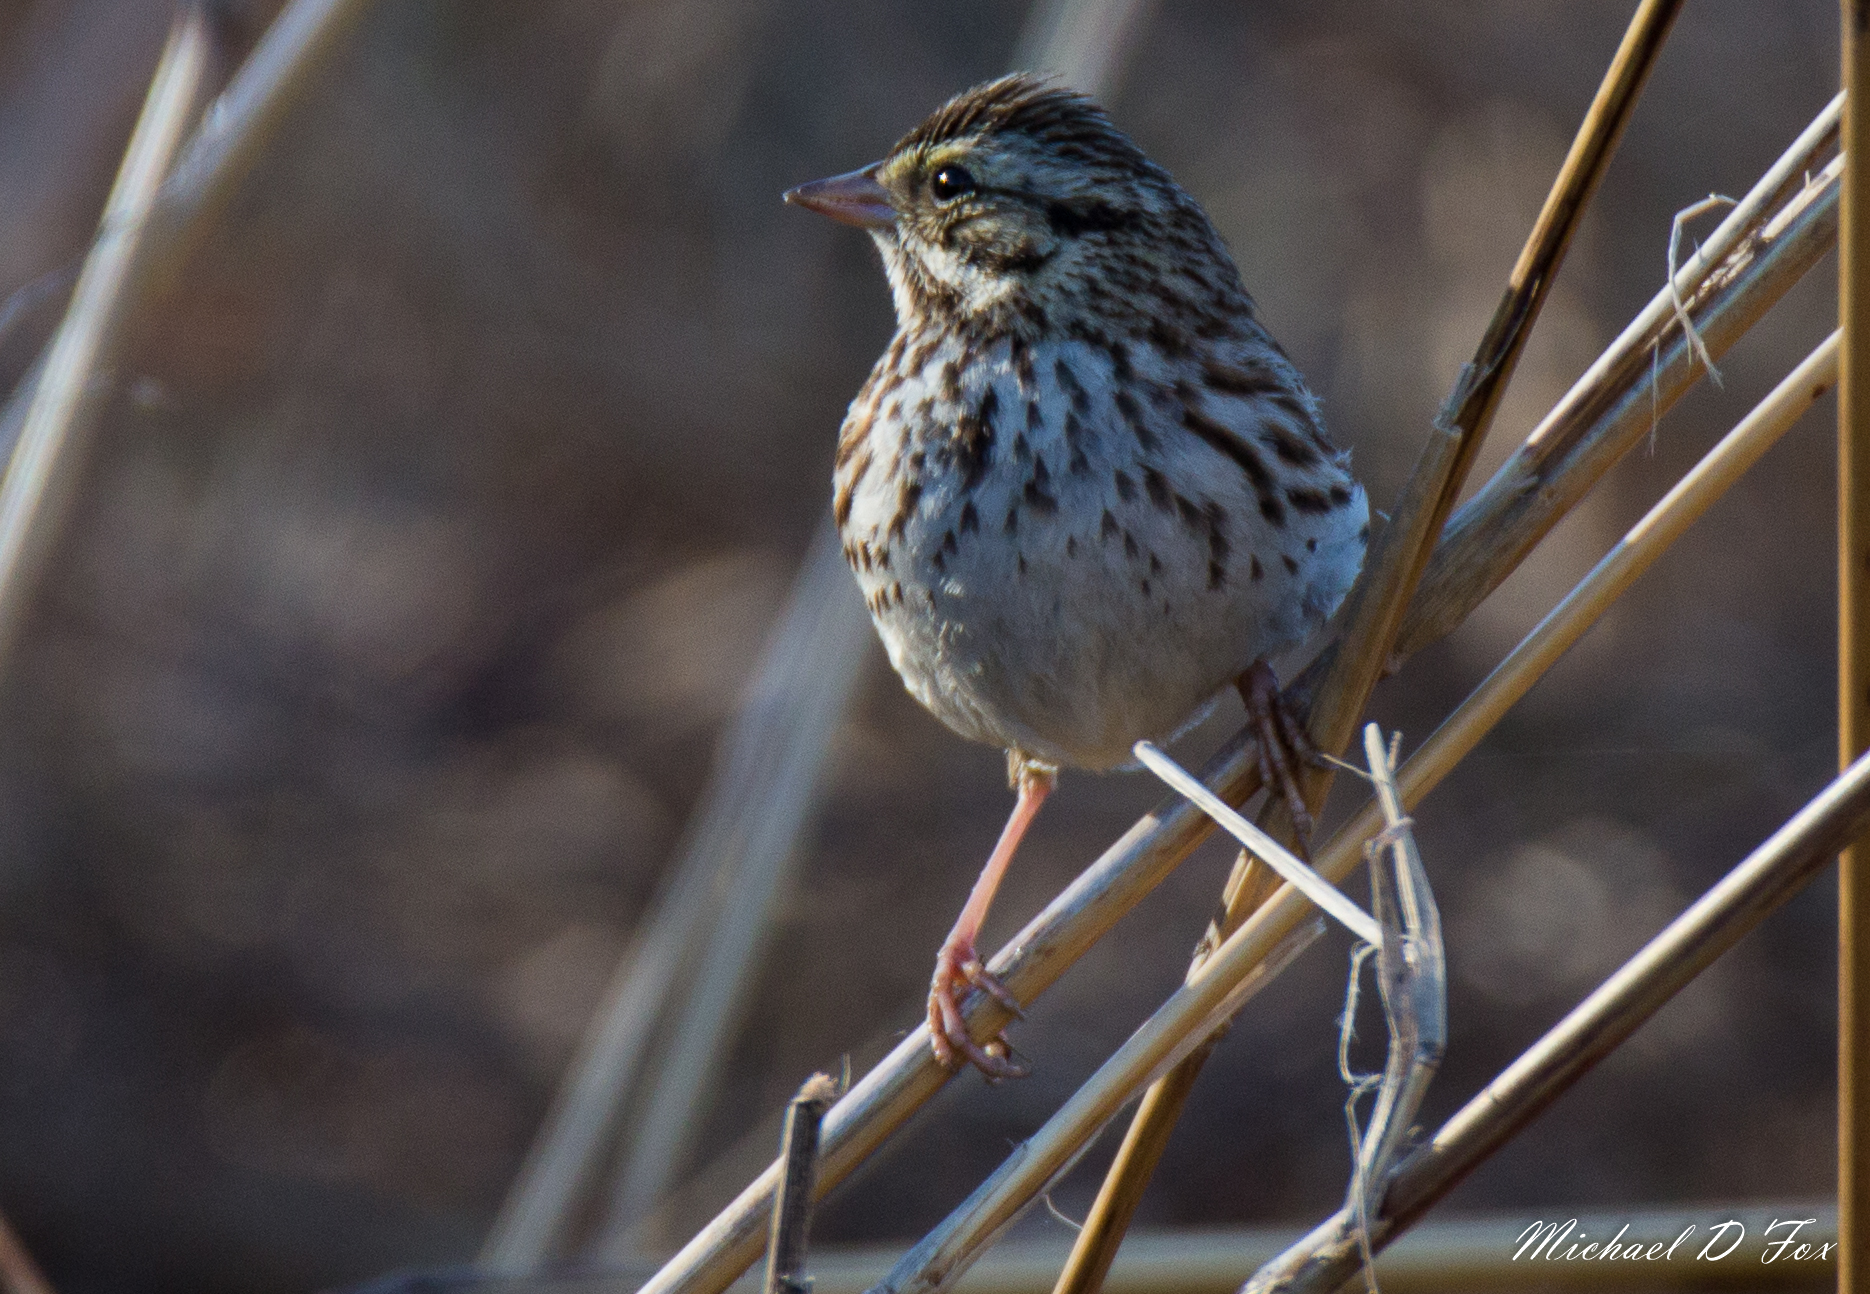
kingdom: Animalia
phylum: Chordata
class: Aves
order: Passeriformes
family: Passerellidae
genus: Passerculus
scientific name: Passerculus sandwichensis
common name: Savannah sparrow
